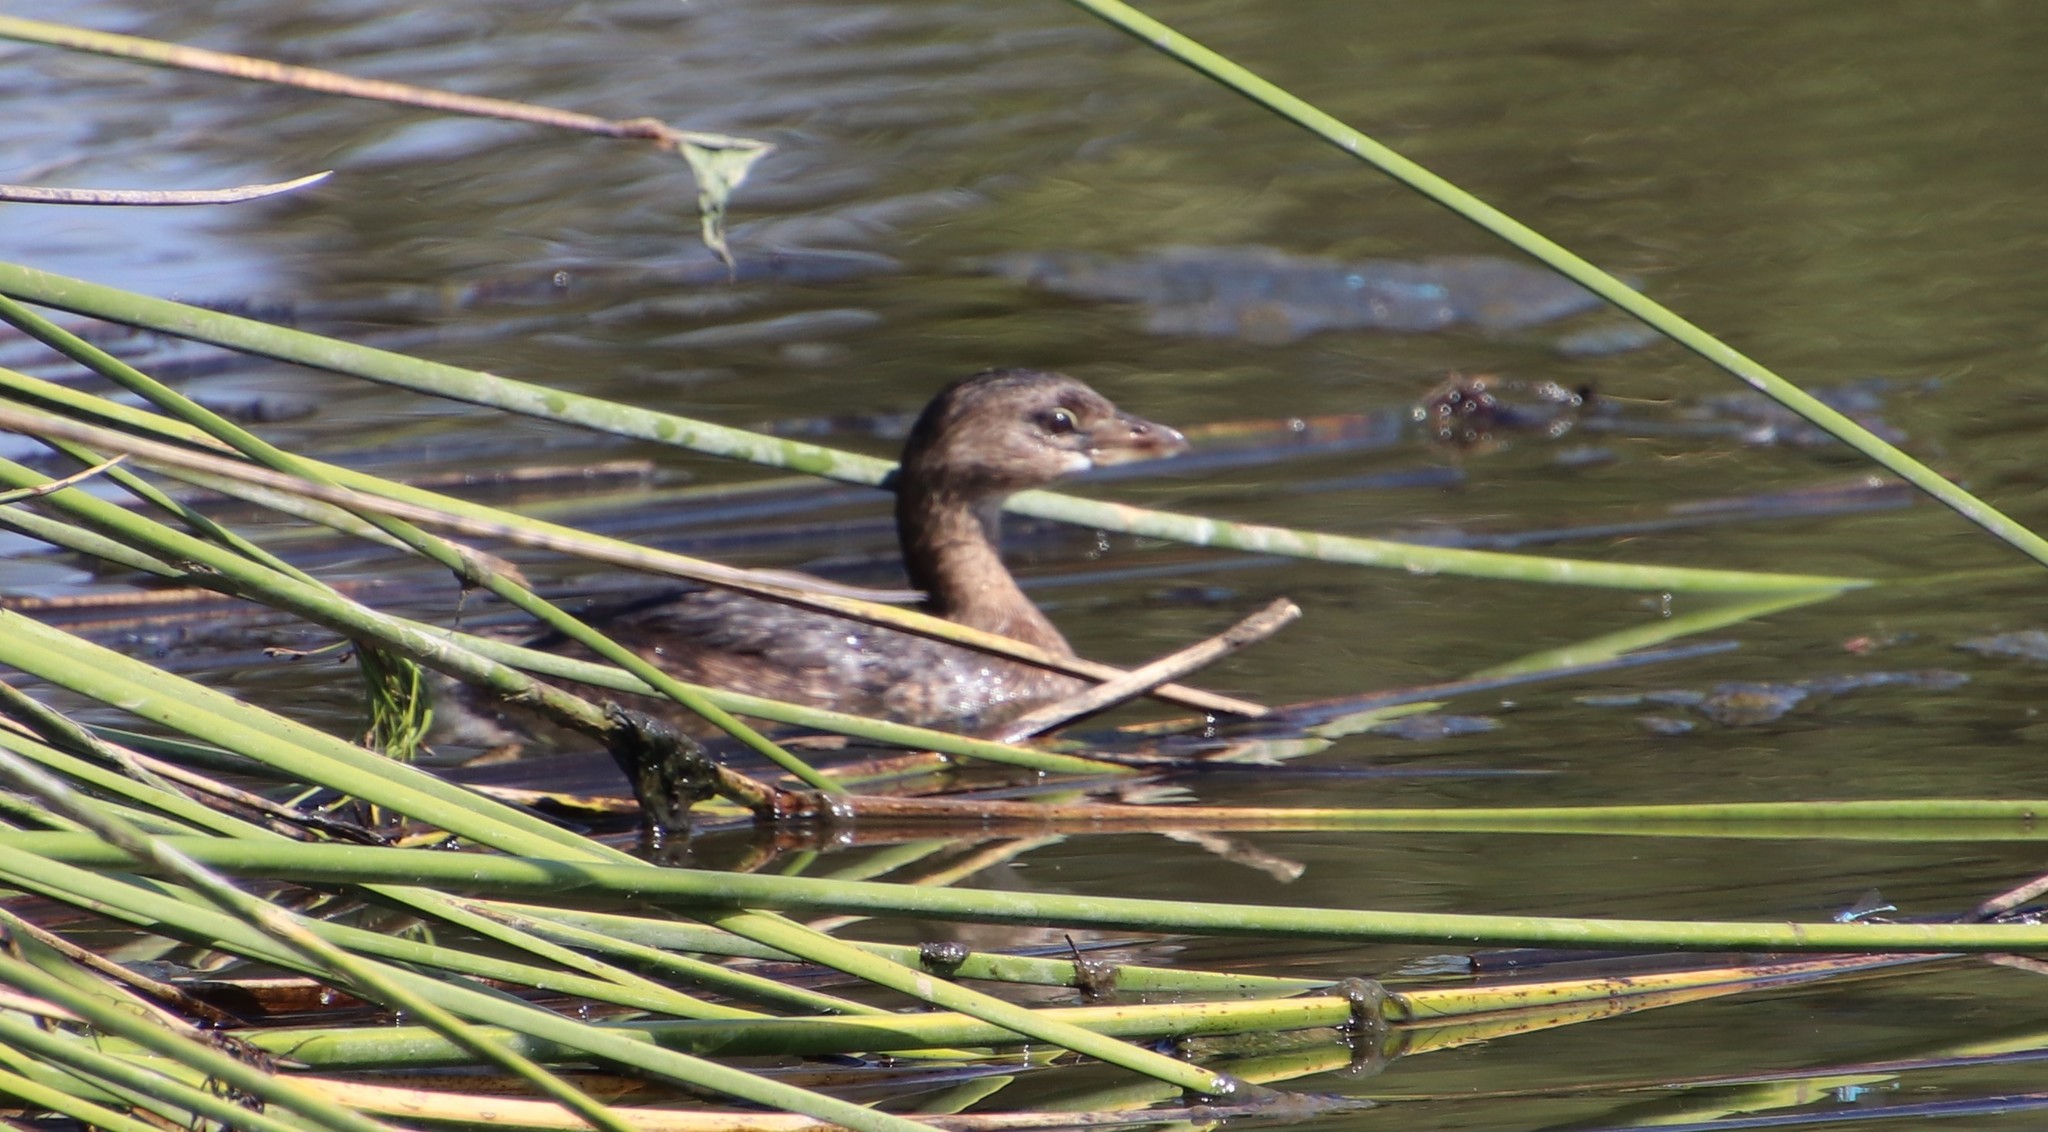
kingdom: Animalia
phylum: Chordata
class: Aves
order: Podicipediformes
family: Podicipedidae
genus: Podilymbus
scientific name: Podilymbus podiceps
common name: Pied-billed grebe
